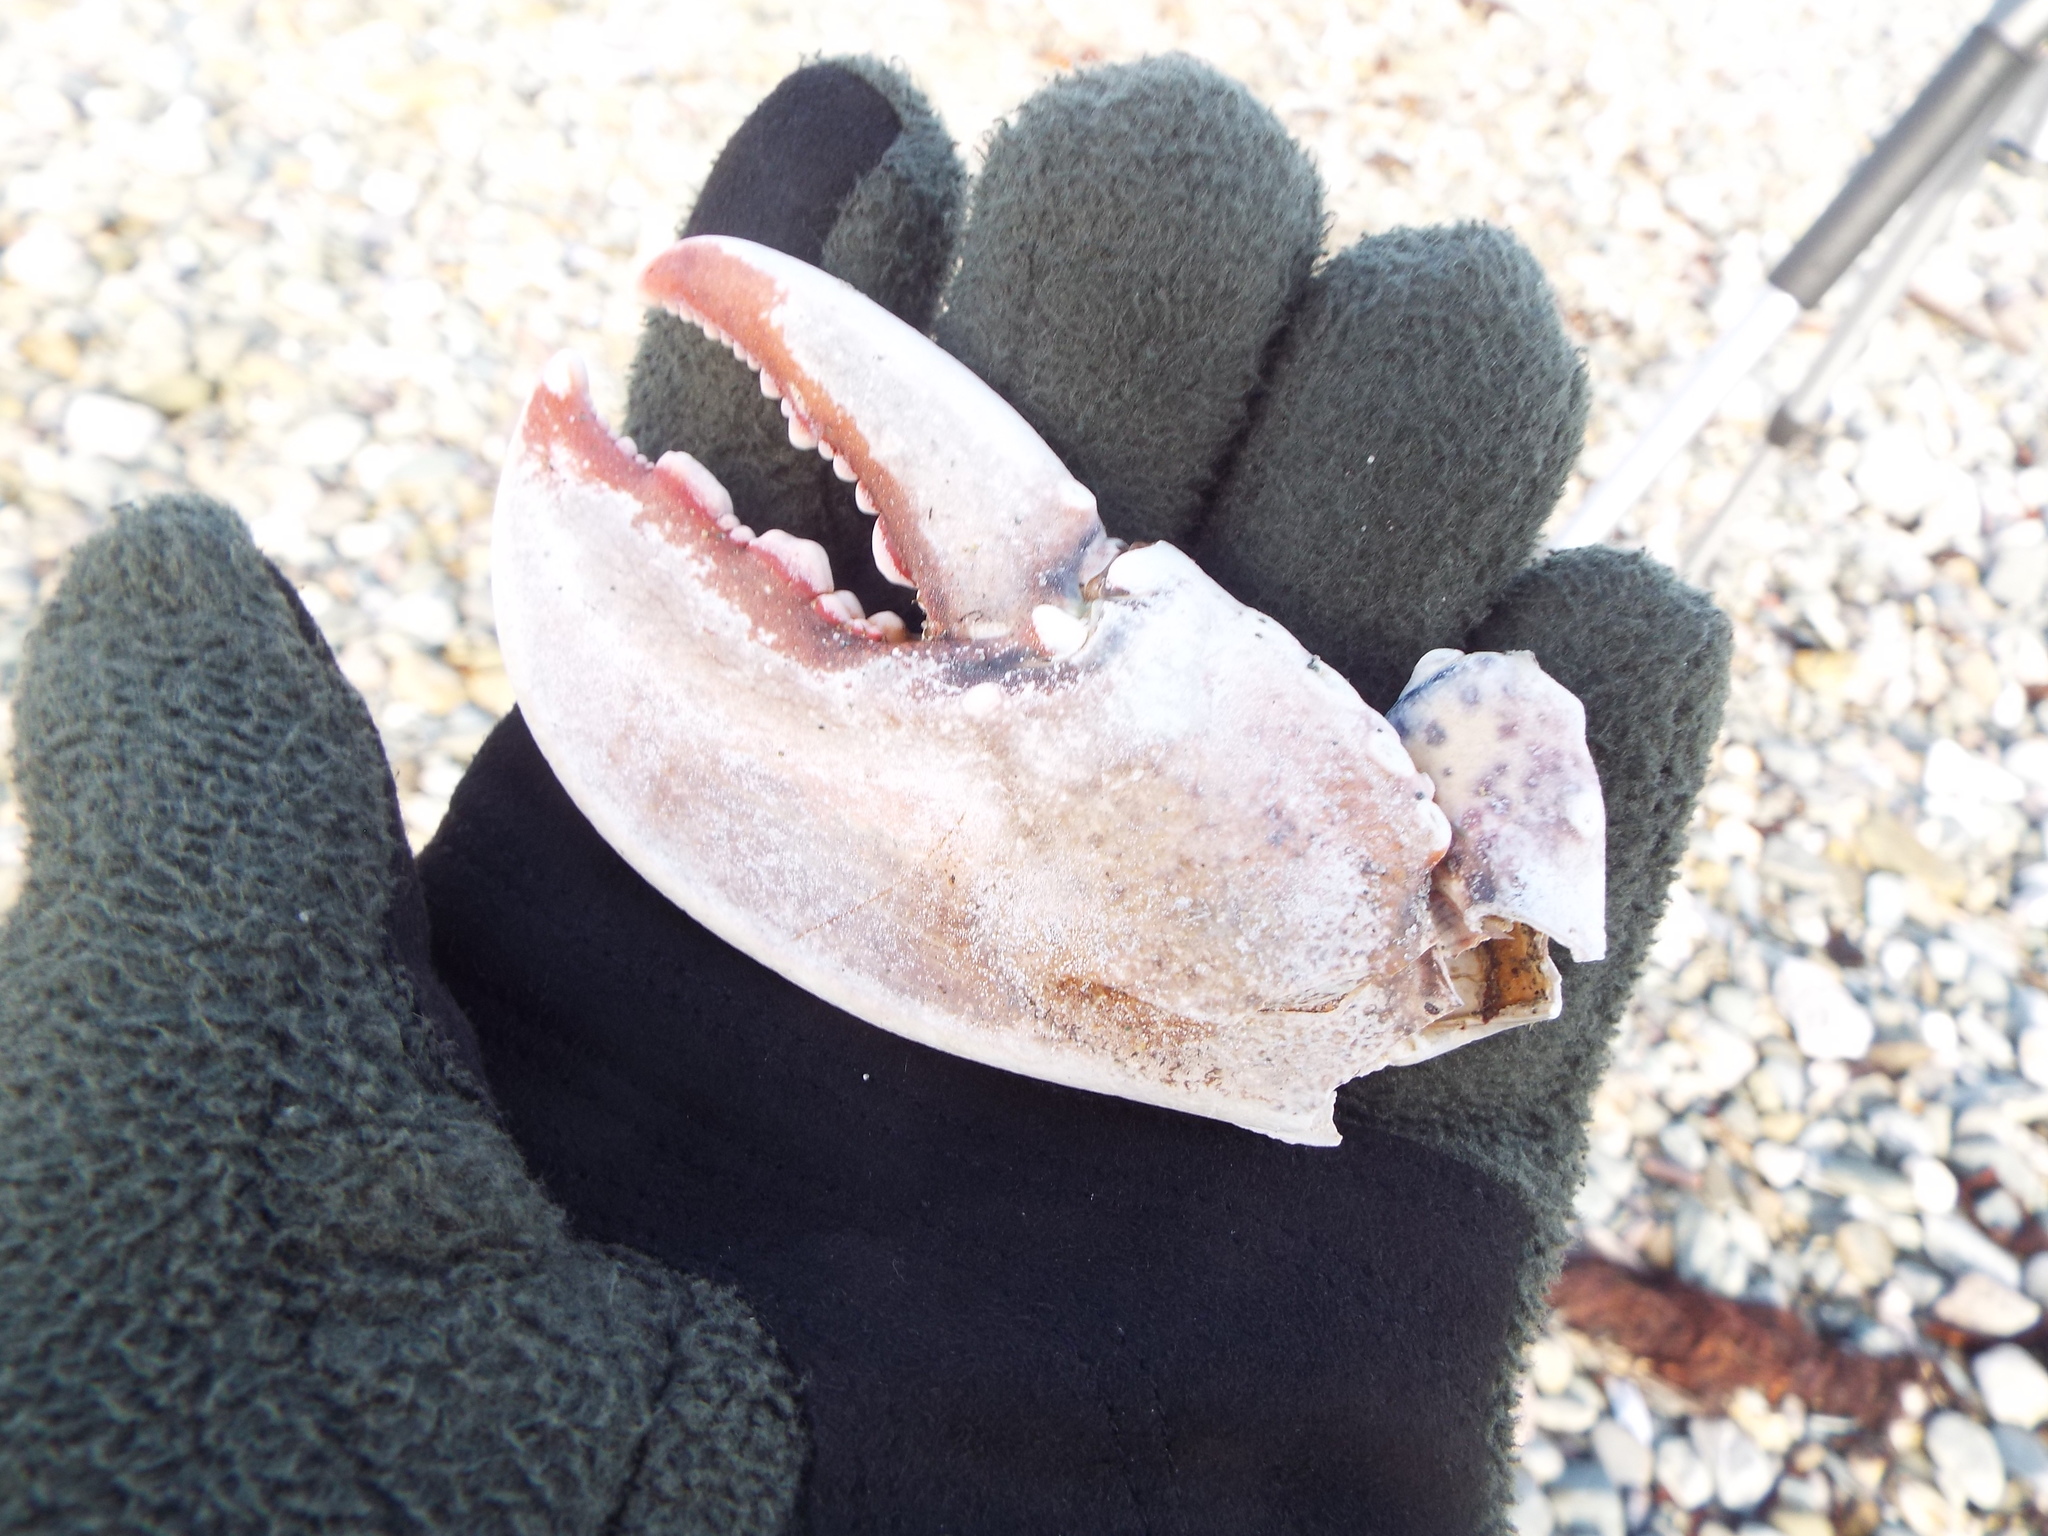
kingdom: Animalia
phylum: Arthropoda
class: Malacostraca
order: Decapoda
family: Nephropidae
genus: Homarus
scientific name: Homarus americanus
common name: American lobster
